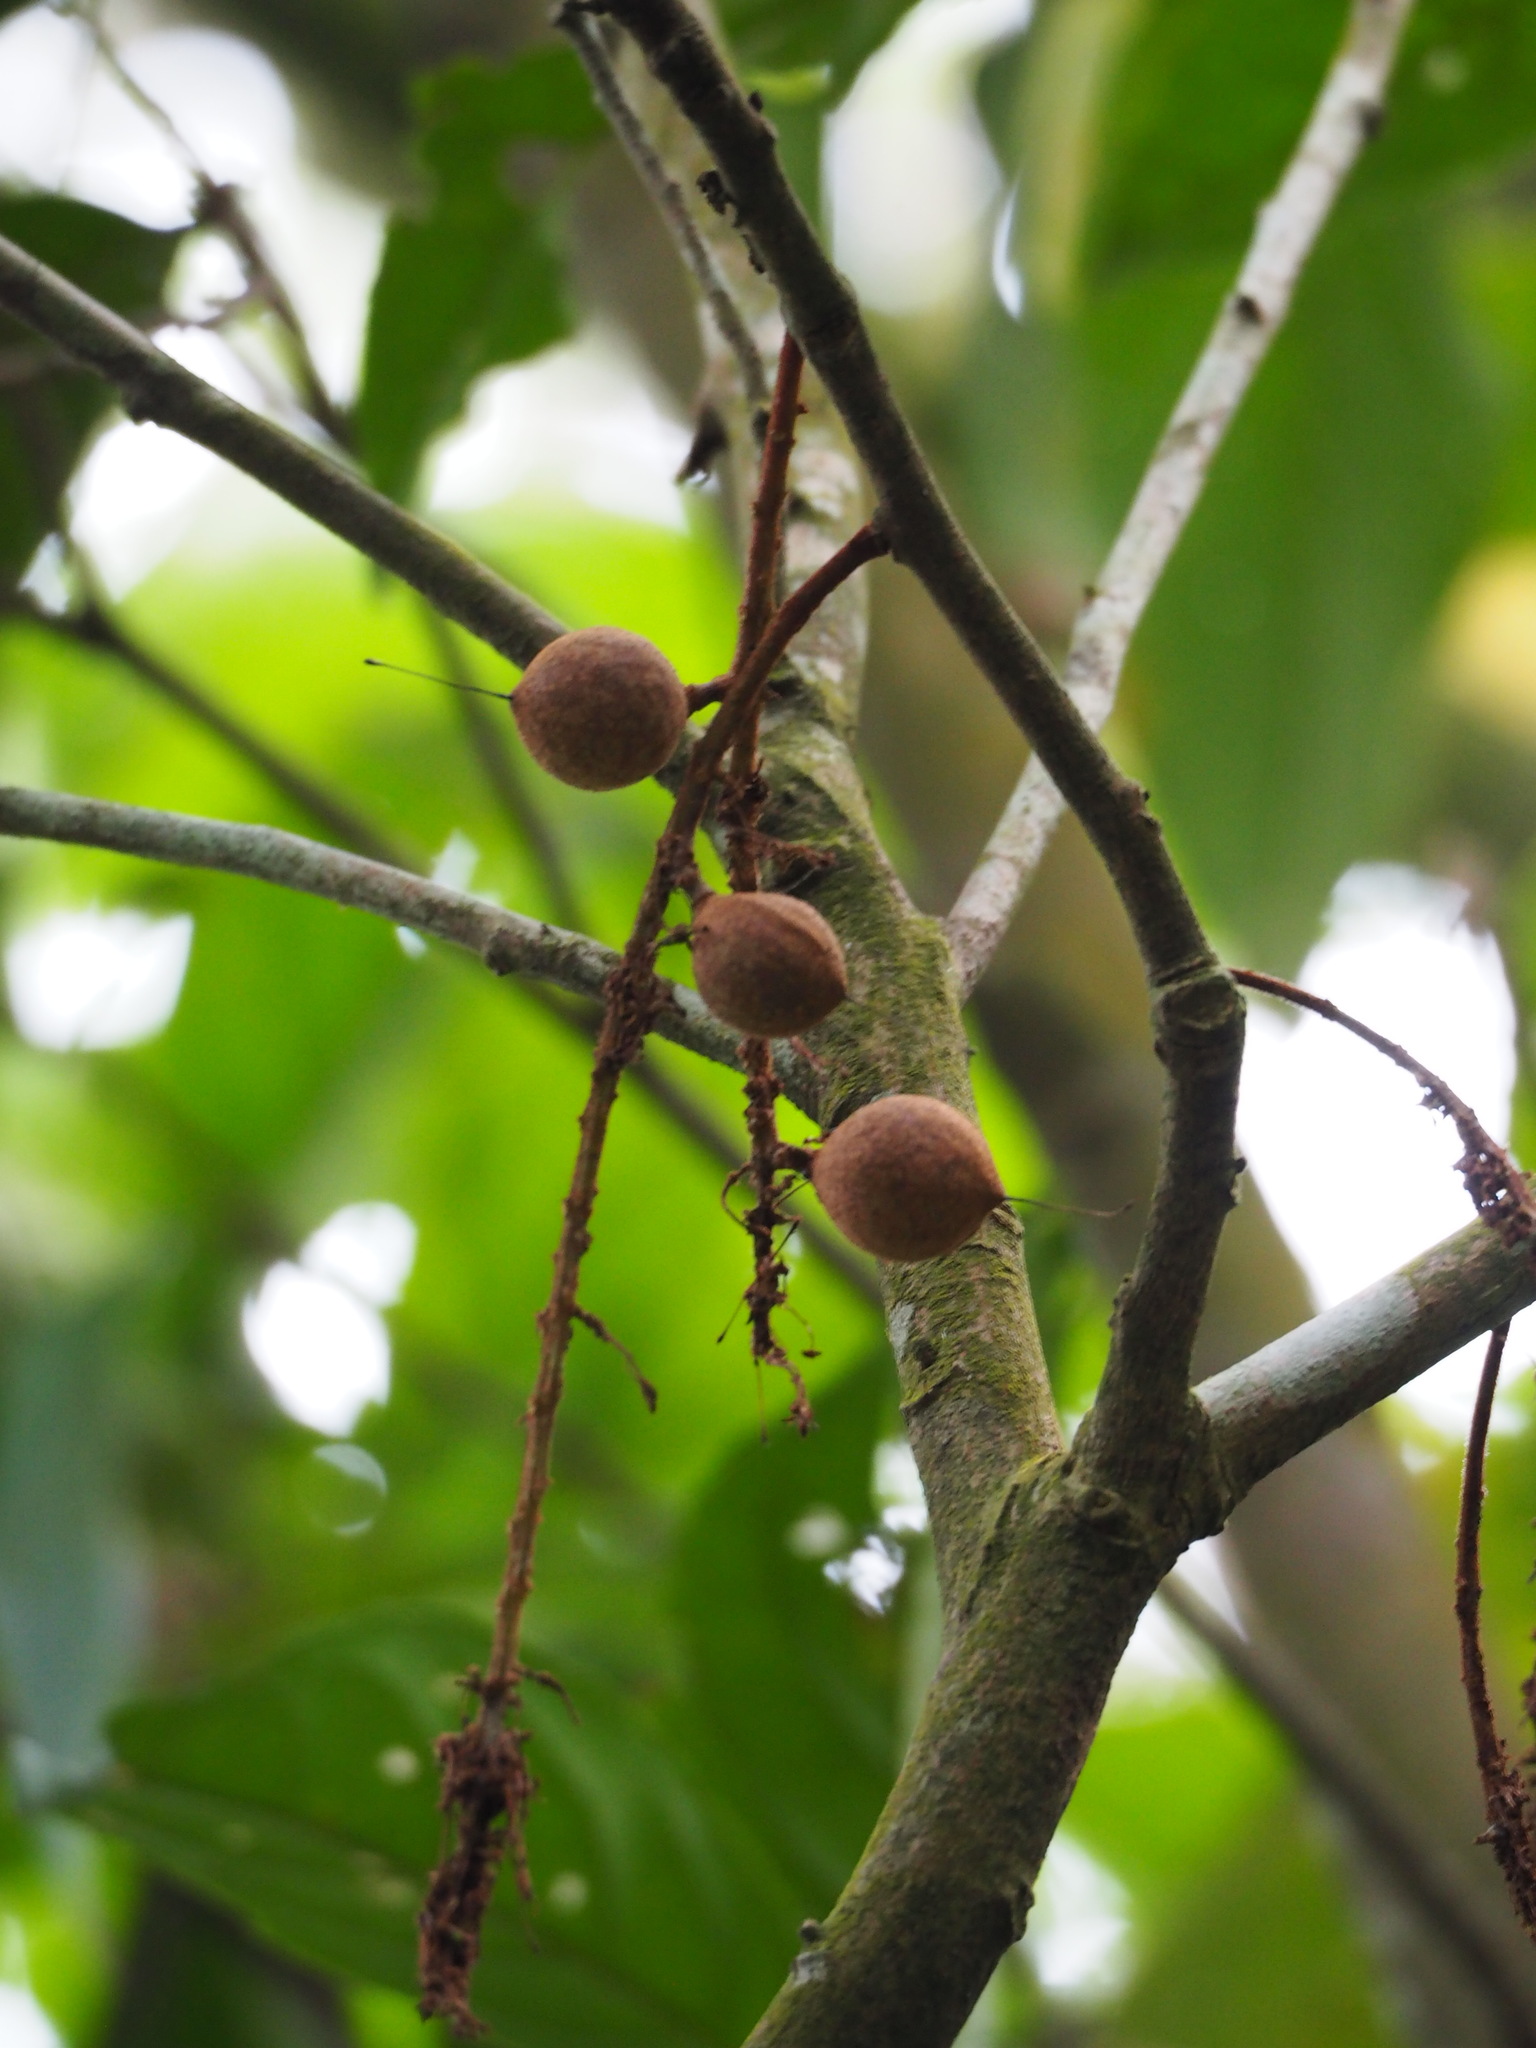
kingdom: Plantae
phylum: Tracheophyta
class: Magnoliopsida
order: Proteales
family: Proteaceae
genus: Helicia
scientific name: Helicia formosana
